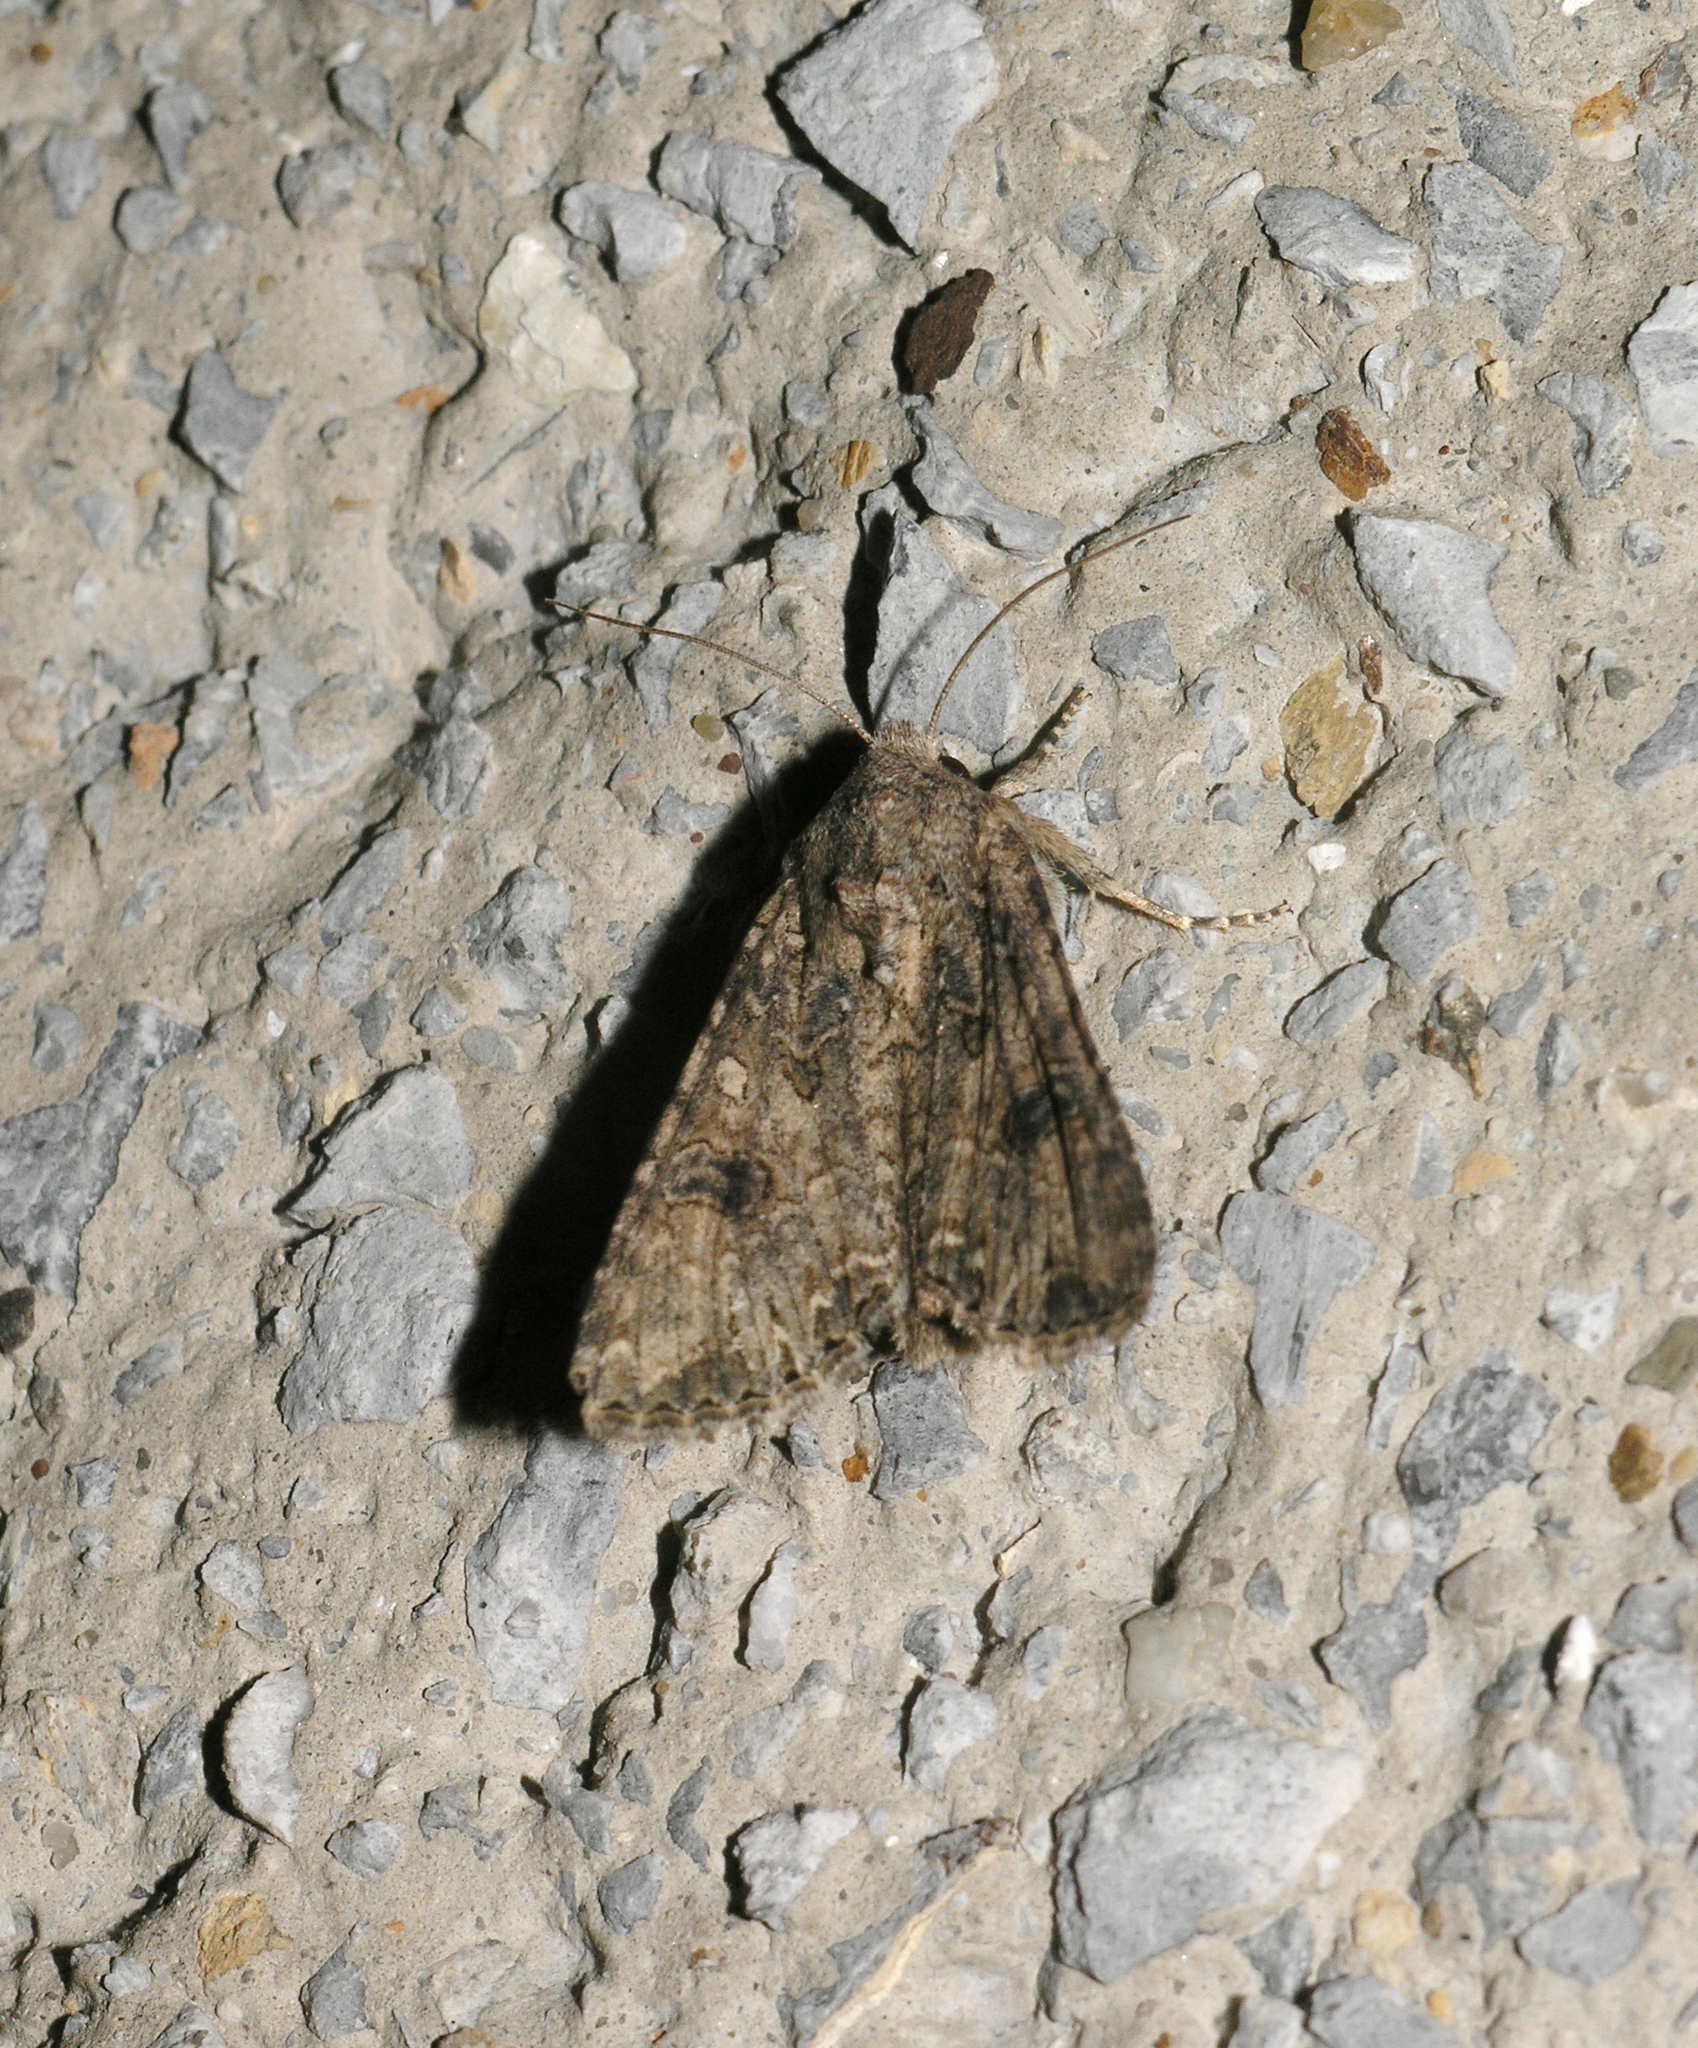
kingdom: Animalia
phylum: Arthropoda
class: Insecta
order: Lepidoptera
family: Noctuidae
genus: Anarta
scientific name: Anarta trifolii
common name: Clover cutworm moth
